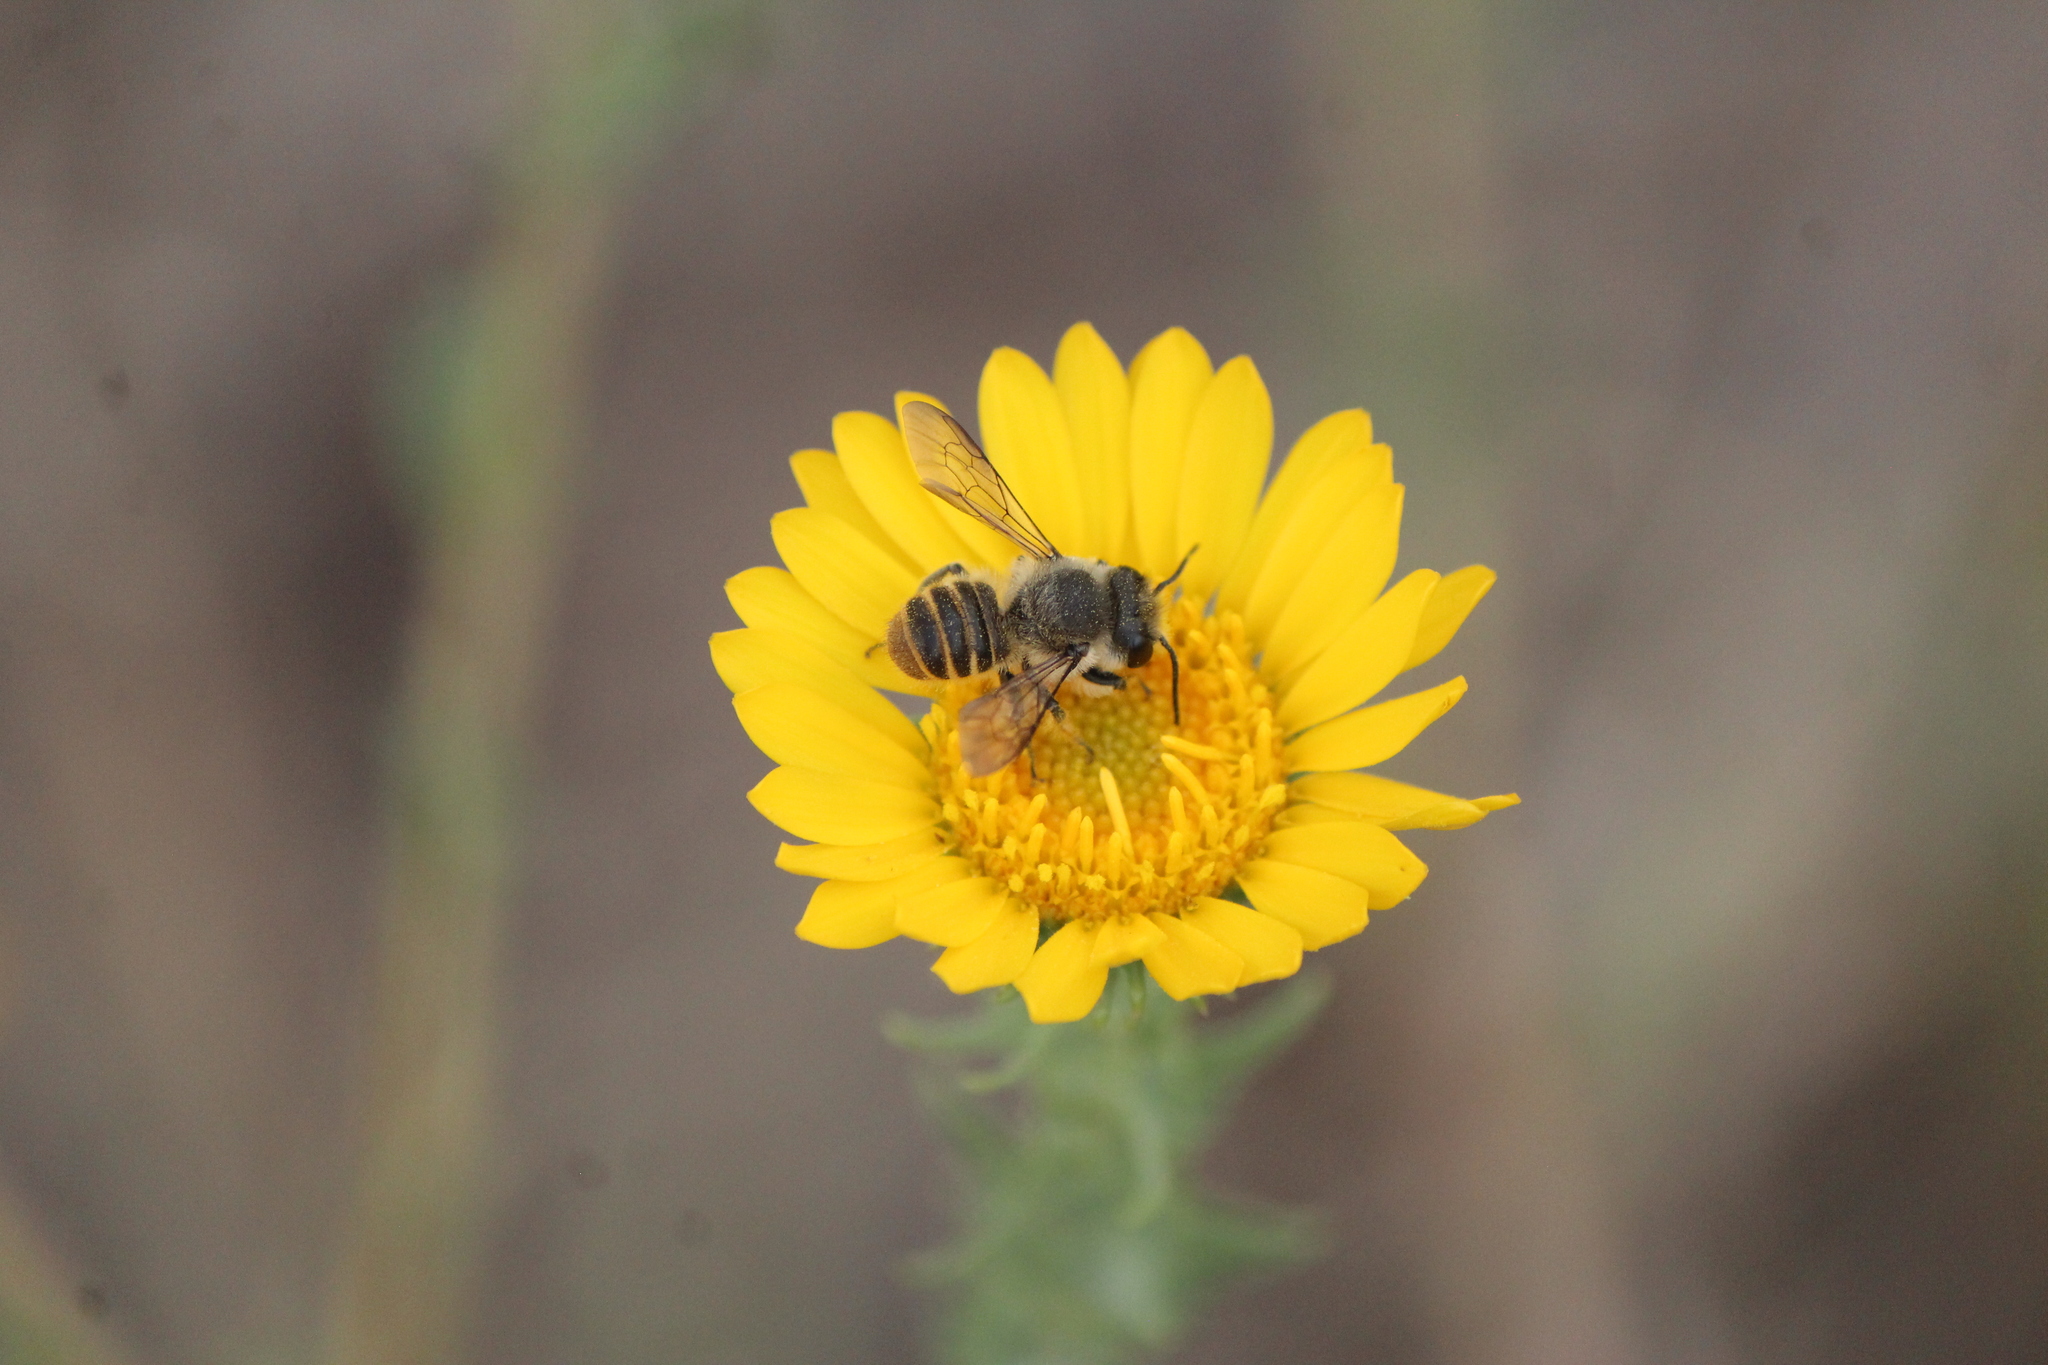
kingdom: Animalia
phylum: Arthropoda
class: Insecta
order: Hymenoptera
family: Megachilidae
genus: Megachile
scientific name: Megachile zapoteca
